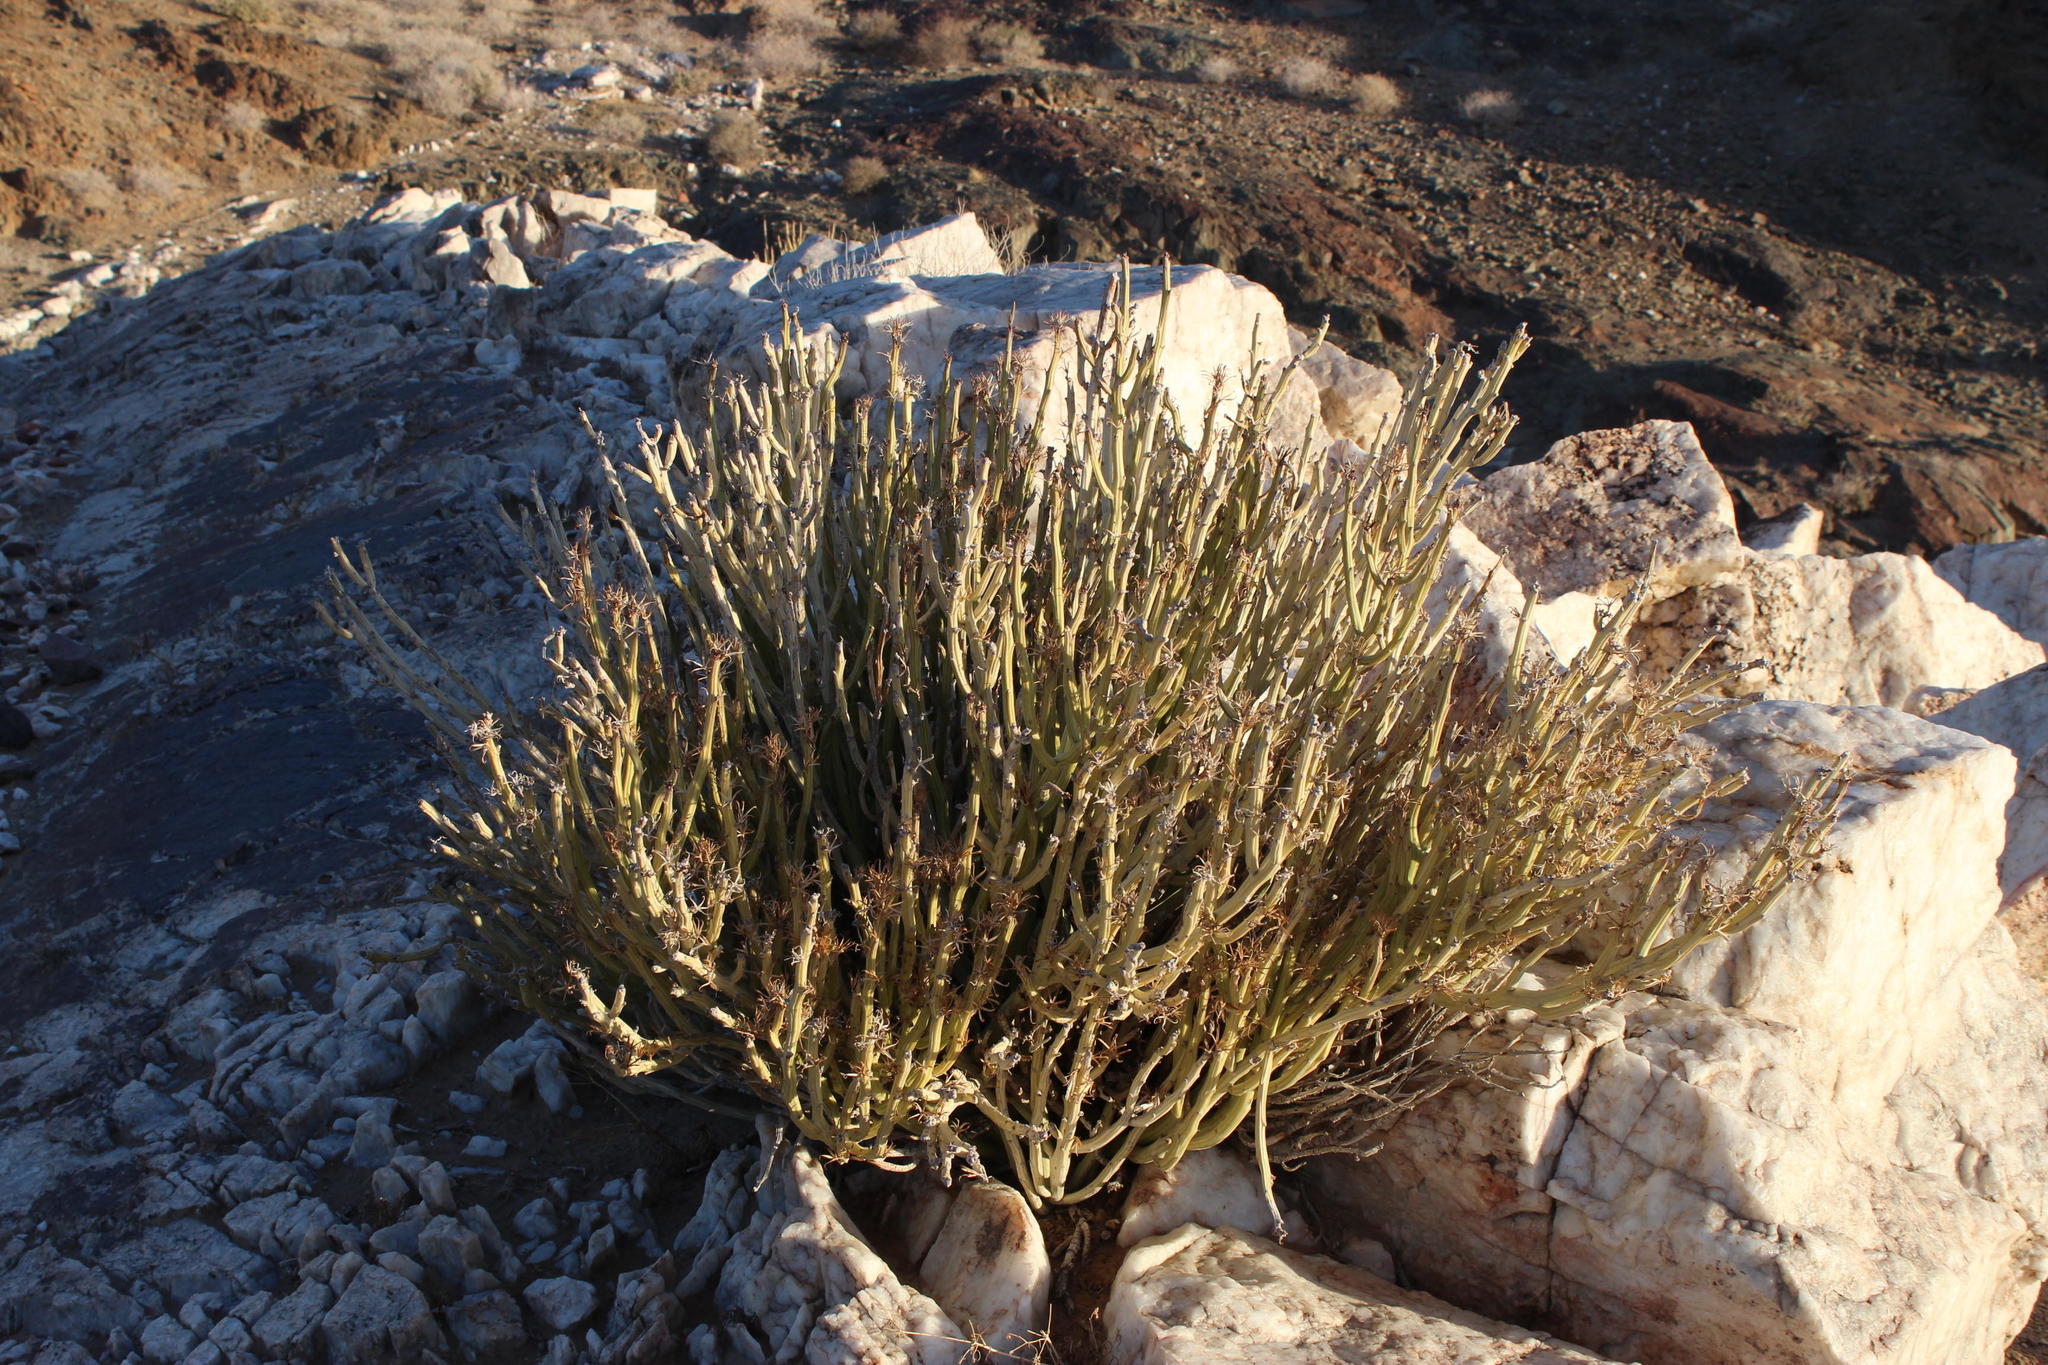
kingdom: Plantae
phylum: Tracheophyta
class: Magnoliopsida
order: Asterales
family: Asteraceae
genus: Curio
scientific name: Curio avasimontanus
